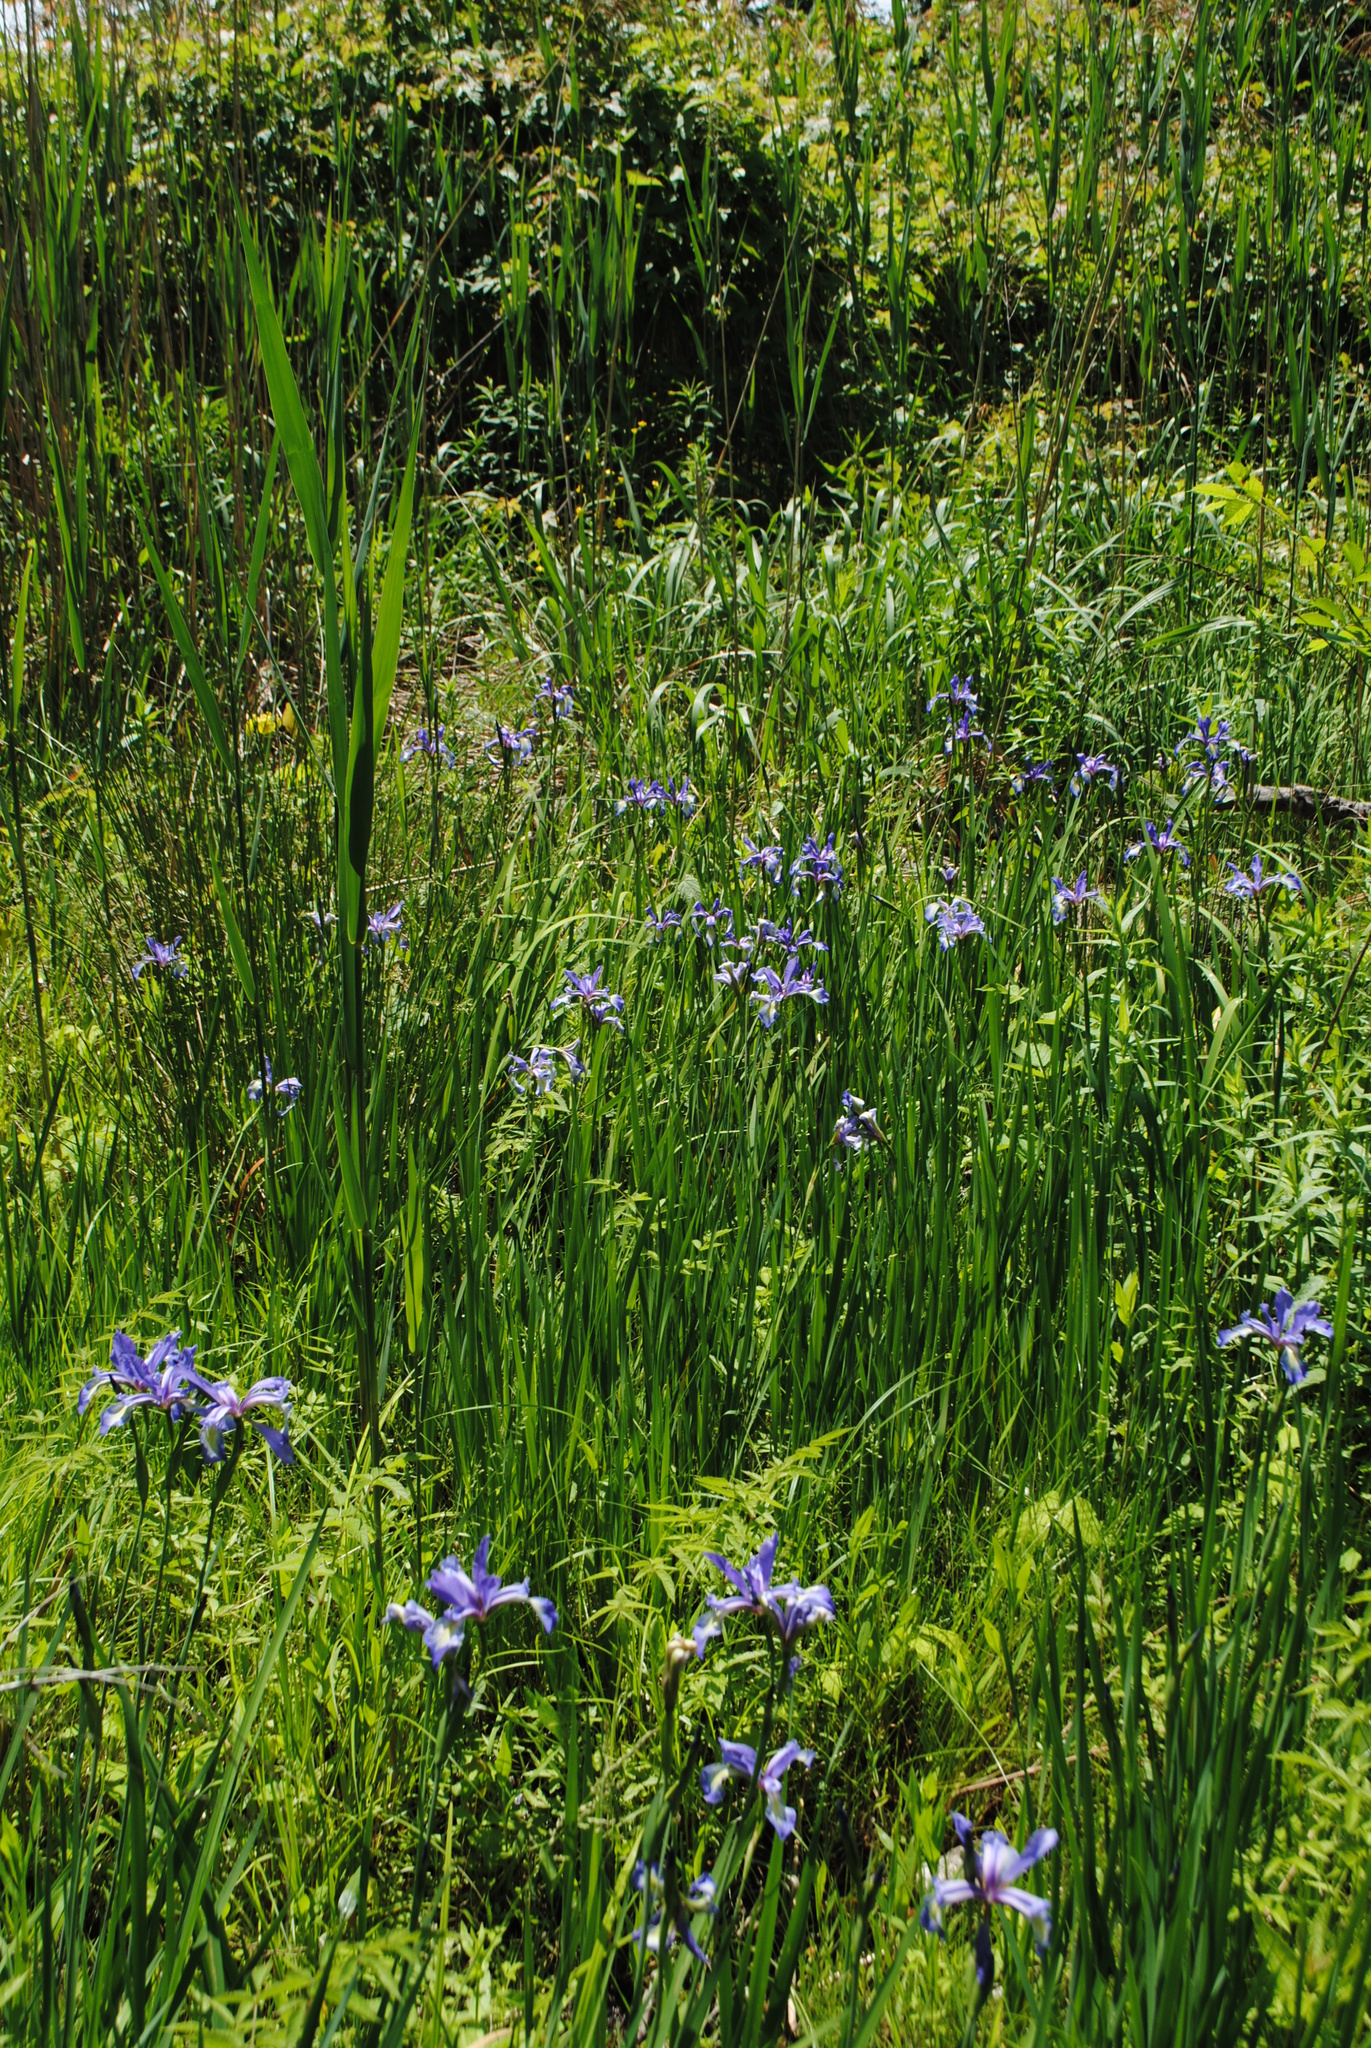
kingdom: Plantae
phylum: Tracheophyta
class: Liliopsida
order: Asparagales
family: Iridaceae
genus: Iris
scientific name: Iris prismatica
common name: Slender blue flag
